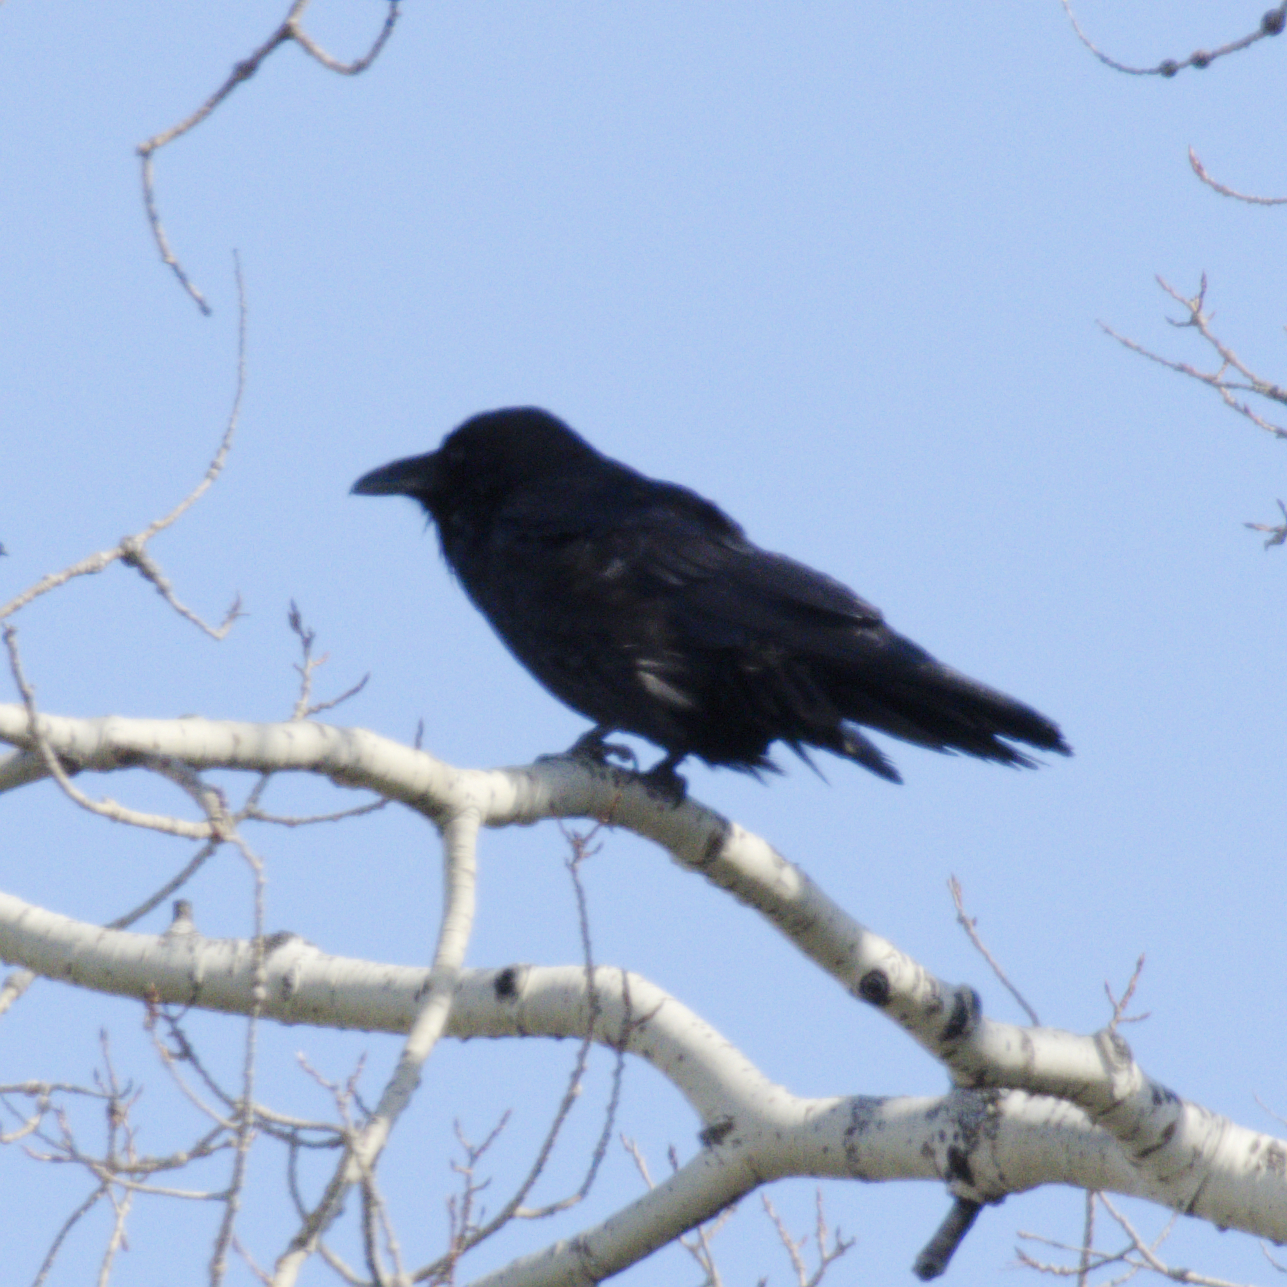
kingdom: Animalia
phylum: Chordata
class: Aves
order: Passeriformes
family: Corvidae
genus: Corvus
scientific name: Corvus corax
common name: Common raven
